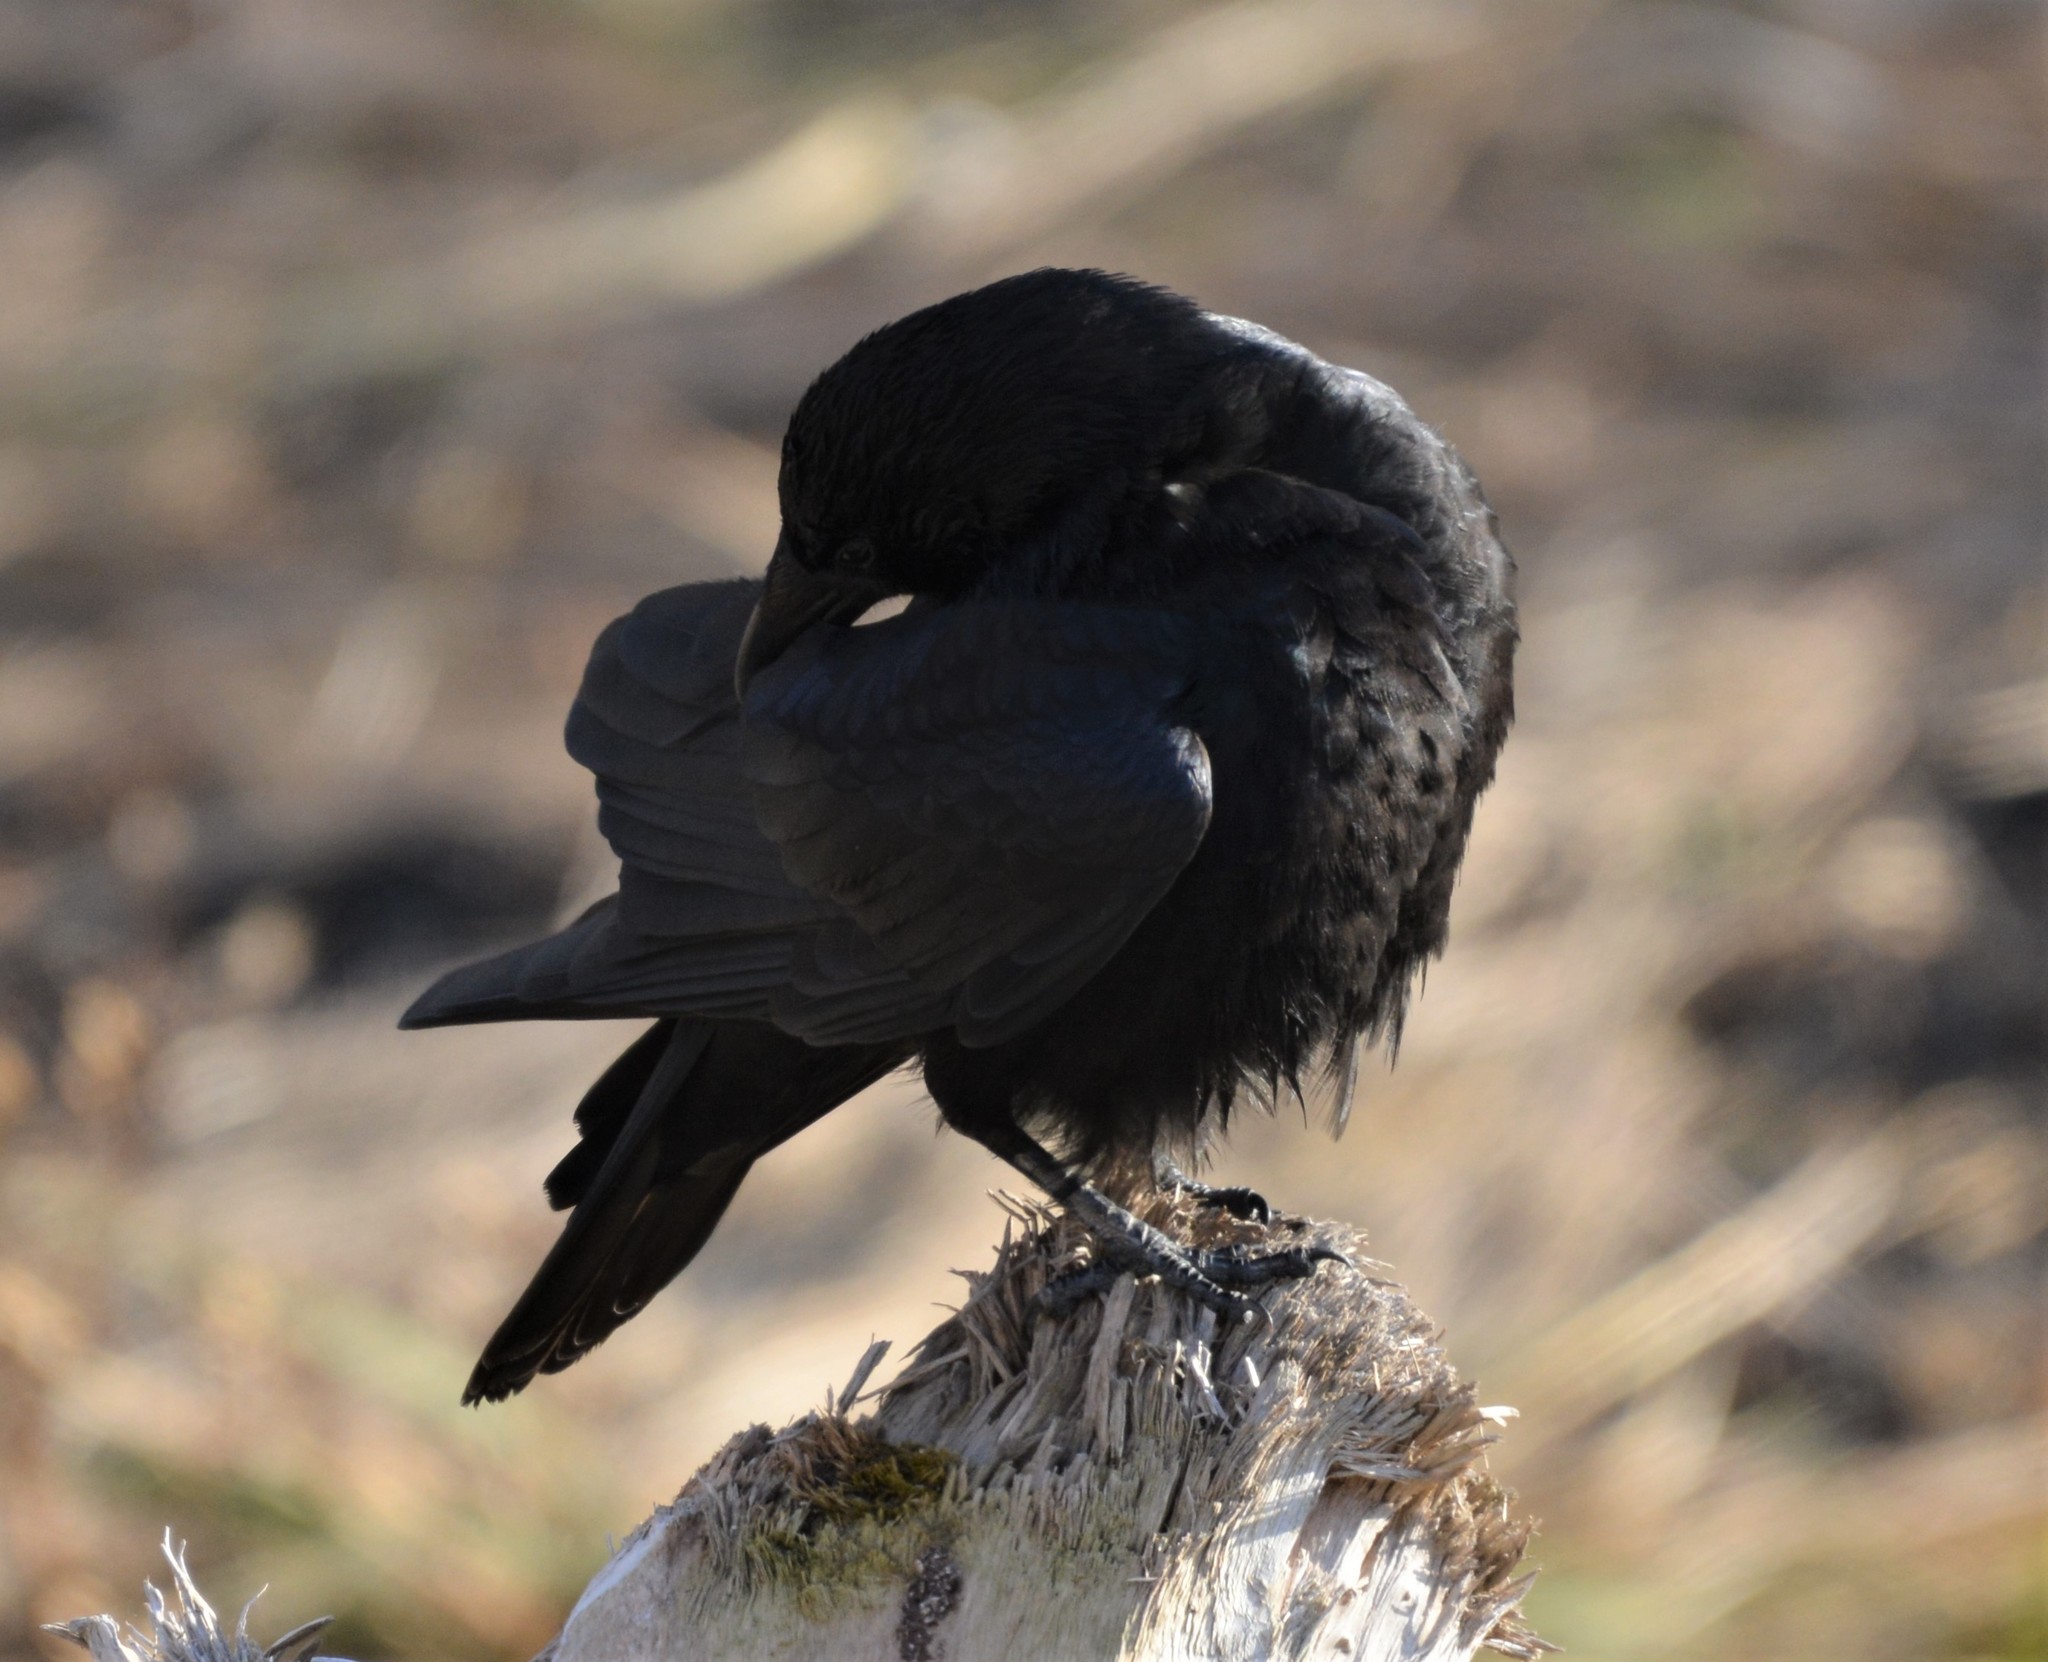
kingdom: Animalia
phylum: Chordata
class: Aves
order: Passeriformes
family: Corvidae
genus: Corvus
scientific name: Corvus corone
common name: Carrion crow
